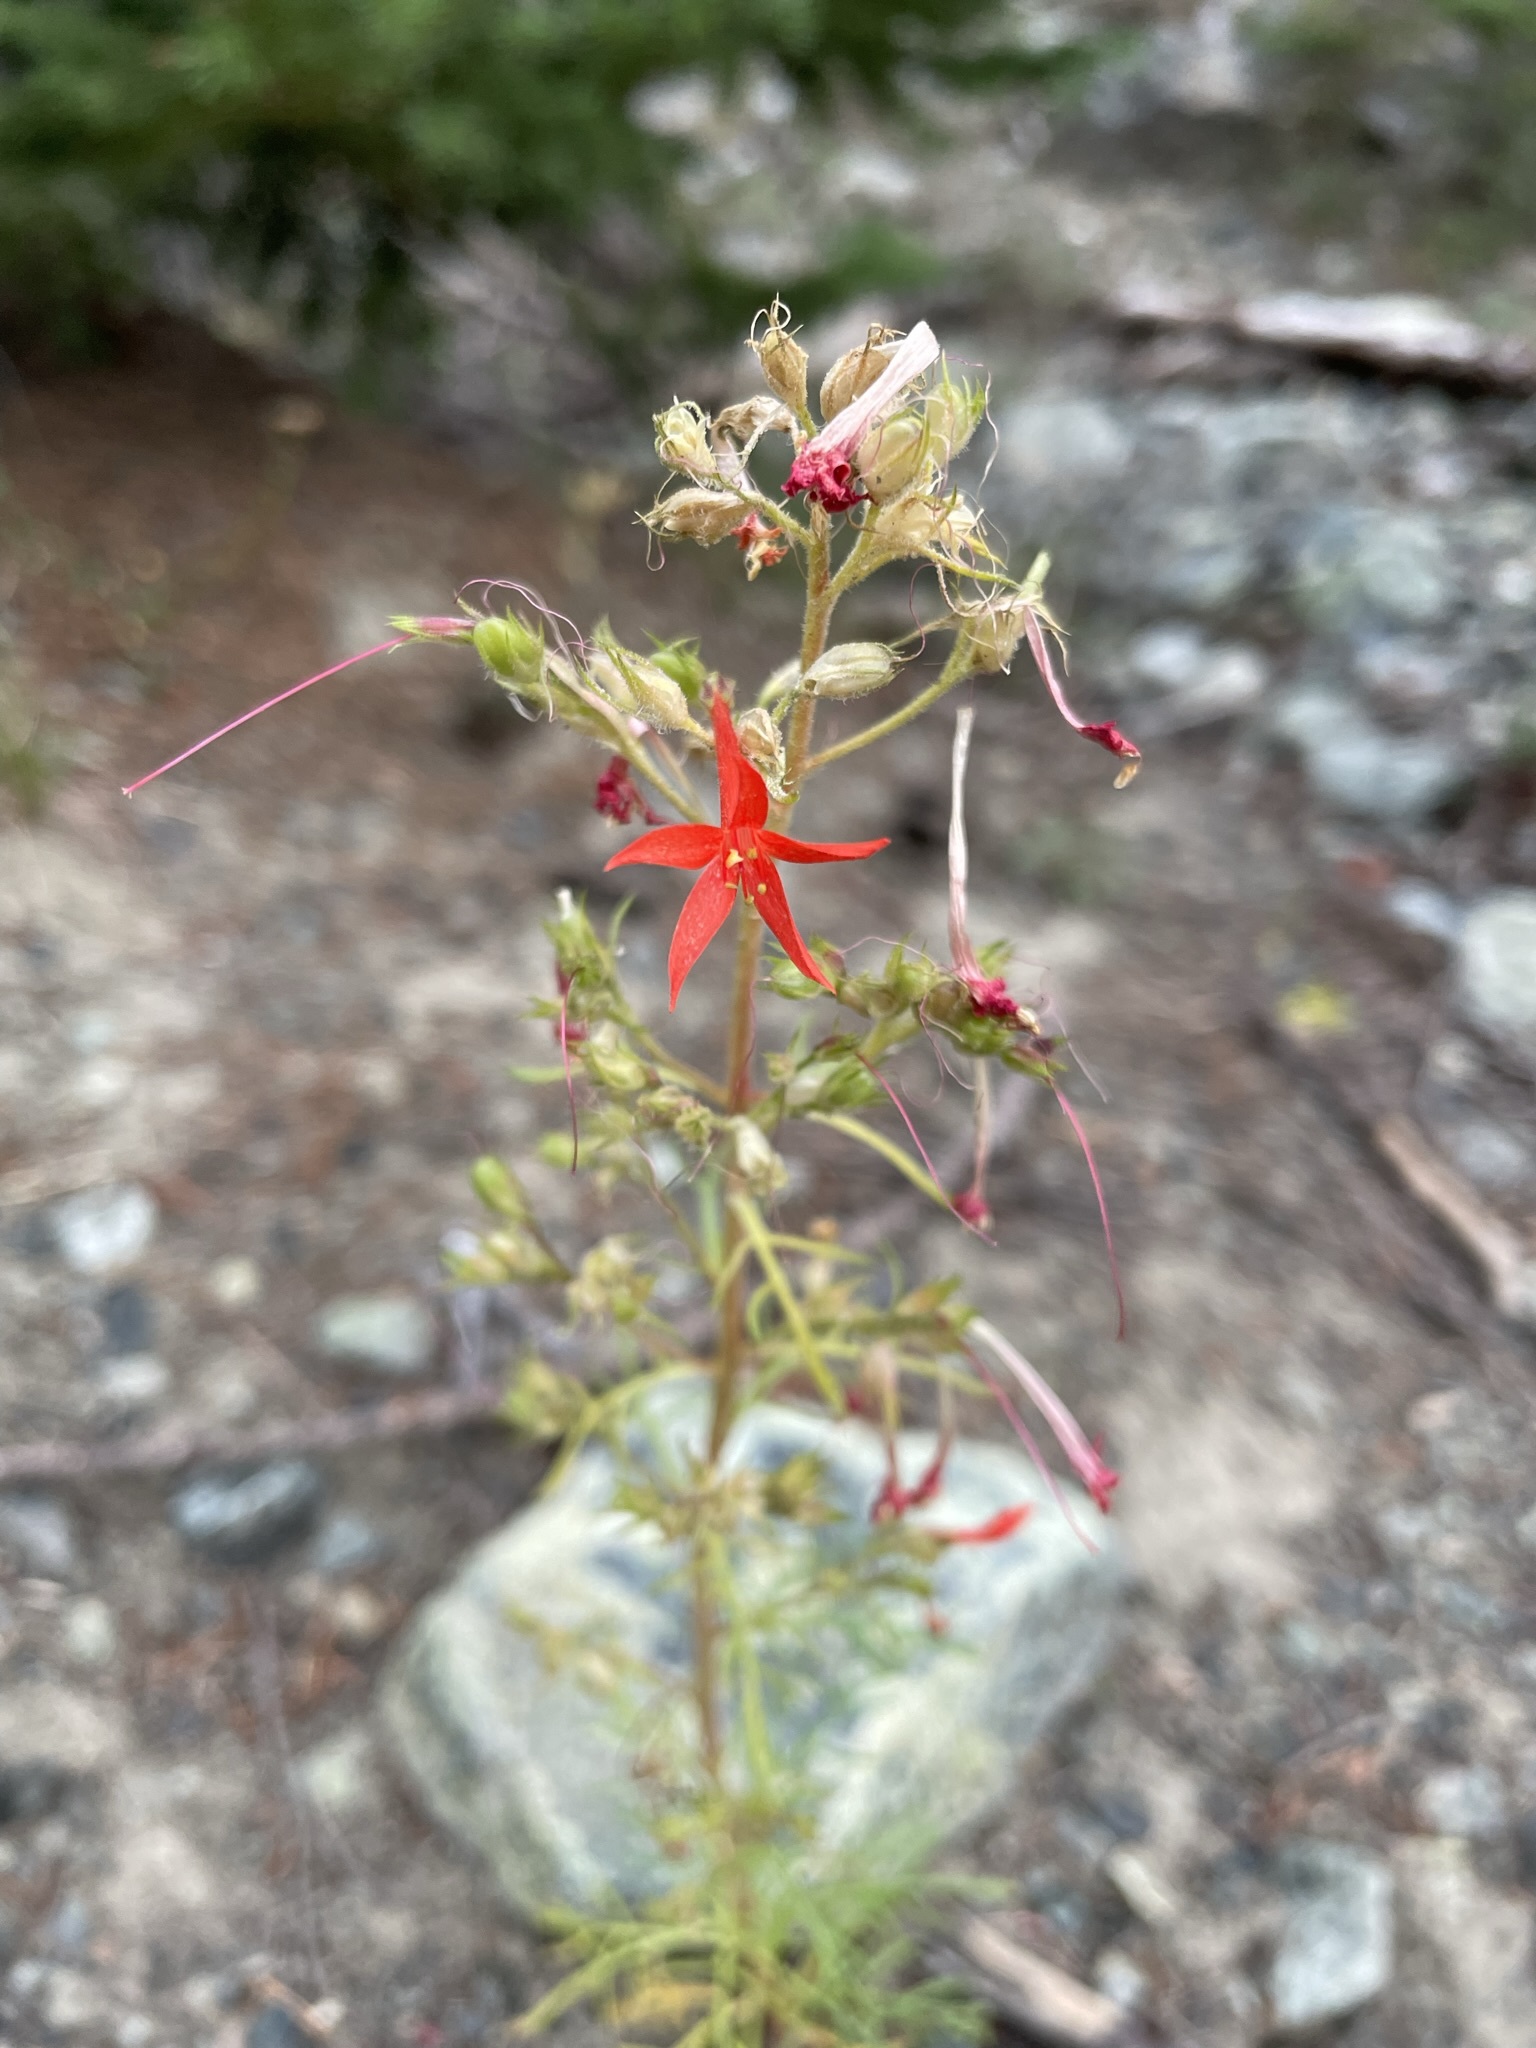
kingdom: Plantae
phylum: Tracheophyta
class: Magnoliopsida
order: Ericales
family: Polemoniaceae
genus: Ipomopsis
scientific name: Ipomopsis aggregata
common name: Scarlet gilia
